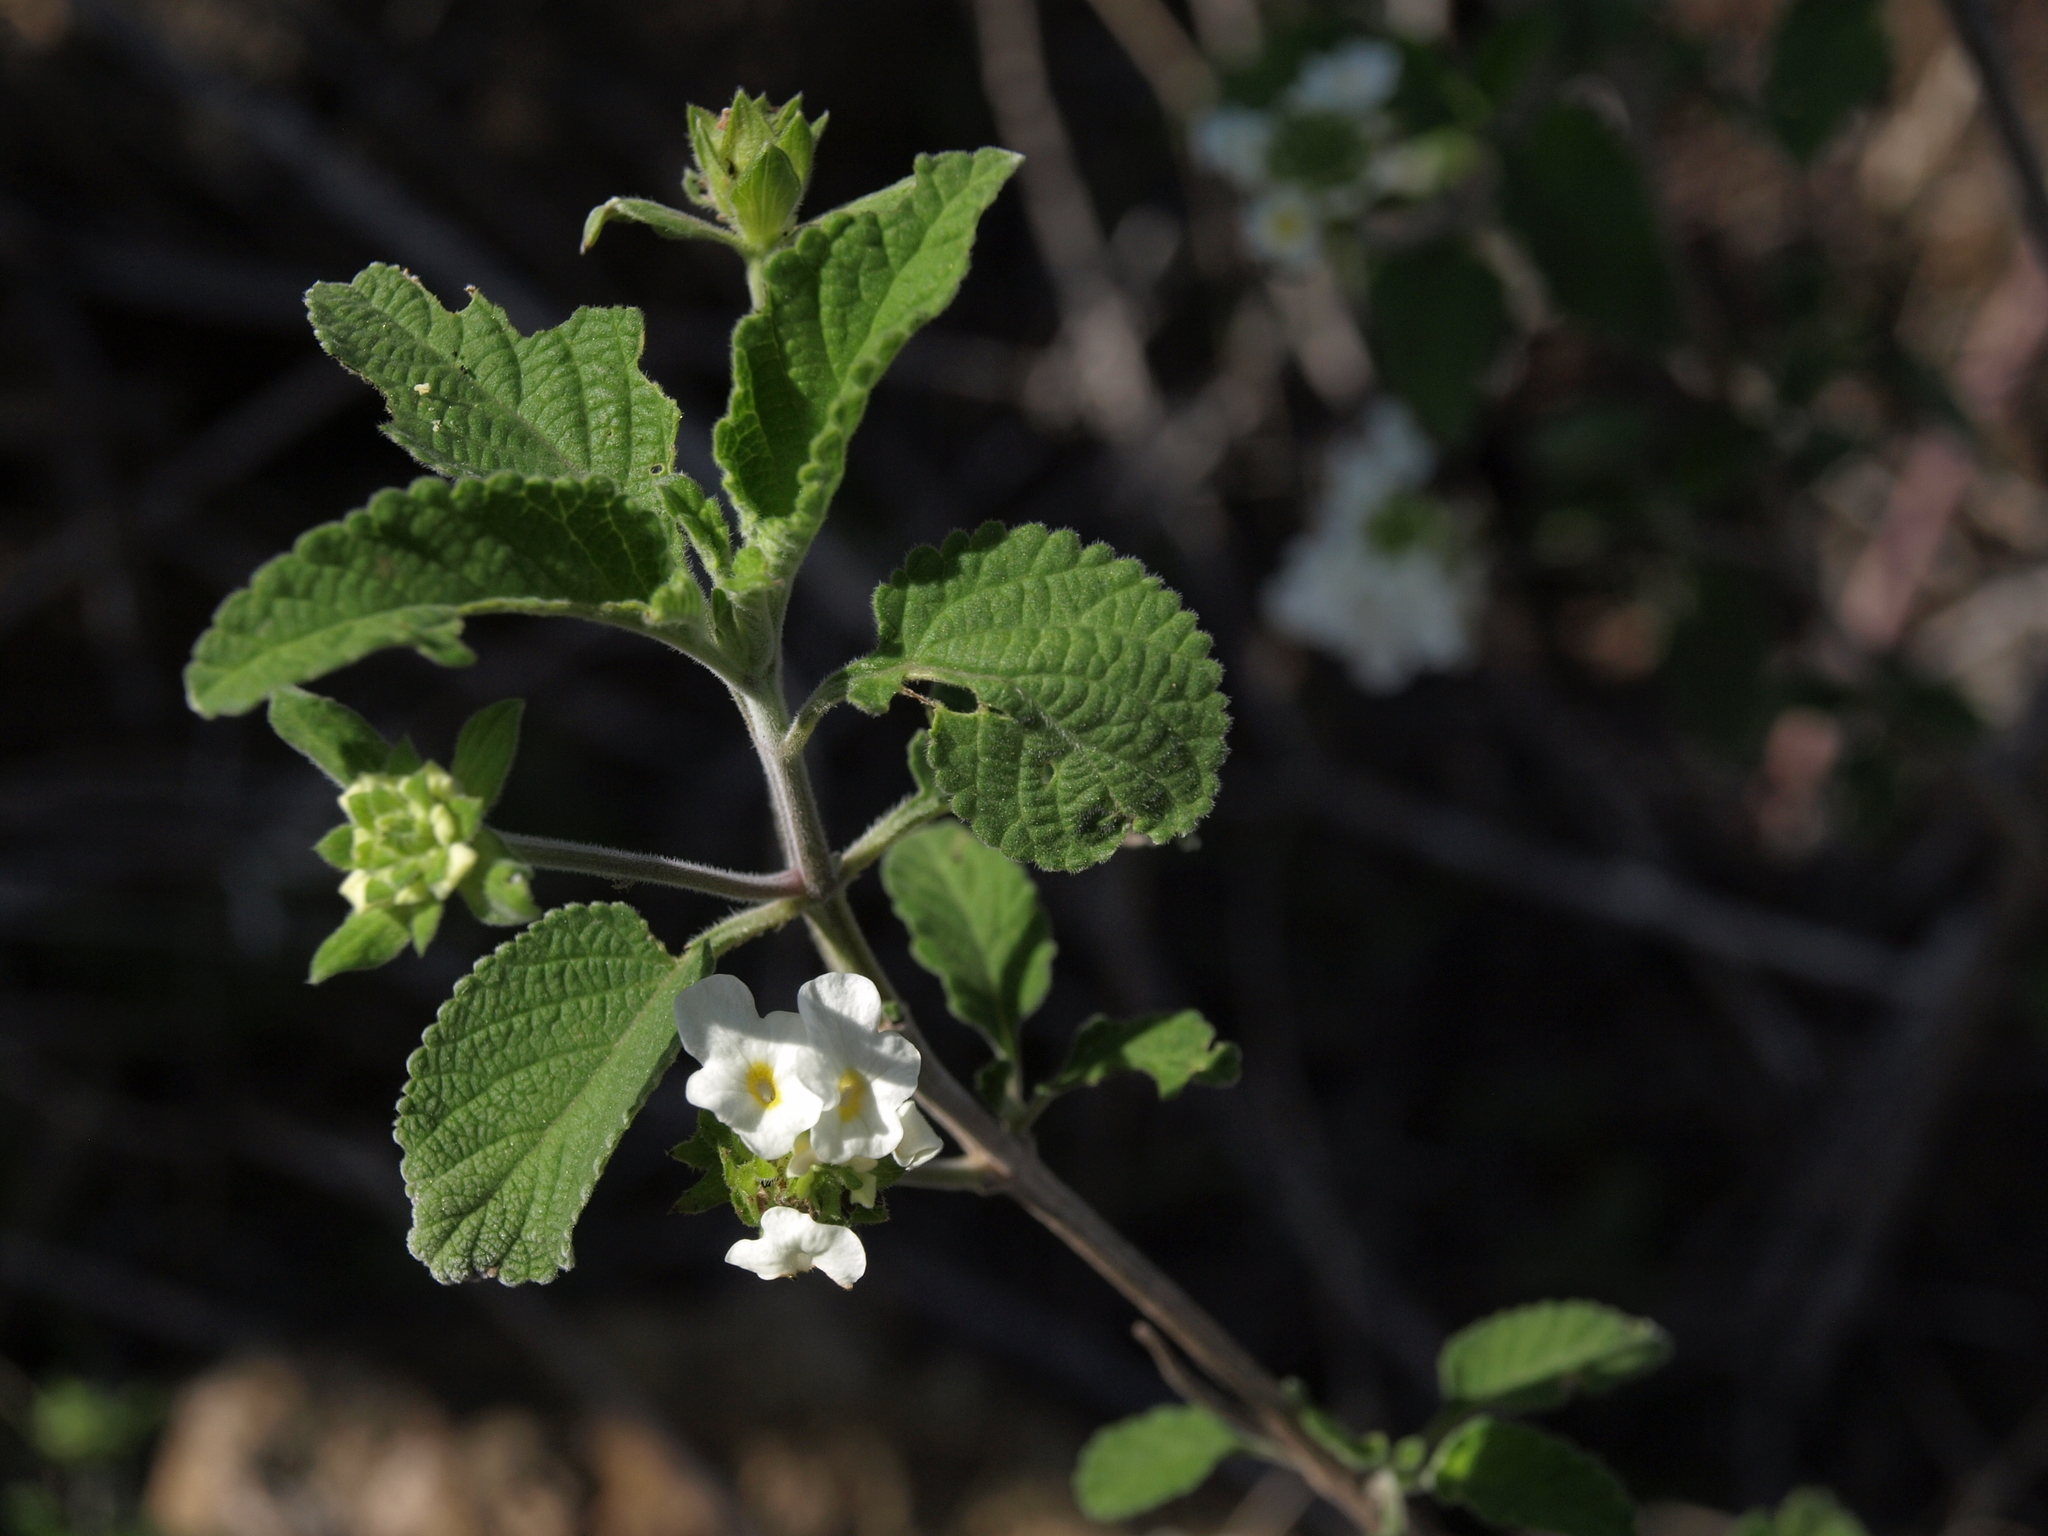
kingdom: Plantae
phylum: Tracheophyta
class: Magnoliopsida
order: Lamiales
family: Verbenaceae
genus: Lantana
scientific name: Lantana peduncularis
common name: Galapagos lantana
